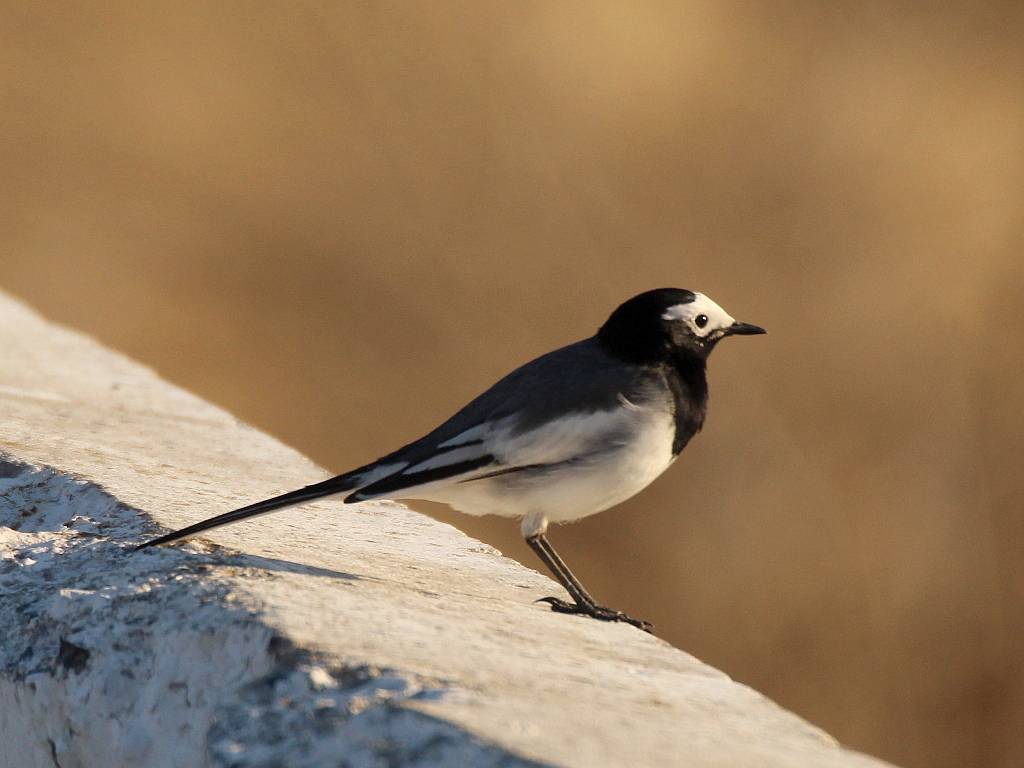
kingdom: Animalia
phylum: Chordata
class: Aves
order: Passeriformes
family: Motacillidae
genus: Motacilla
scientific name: Motacilla alba
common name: White wagtail
